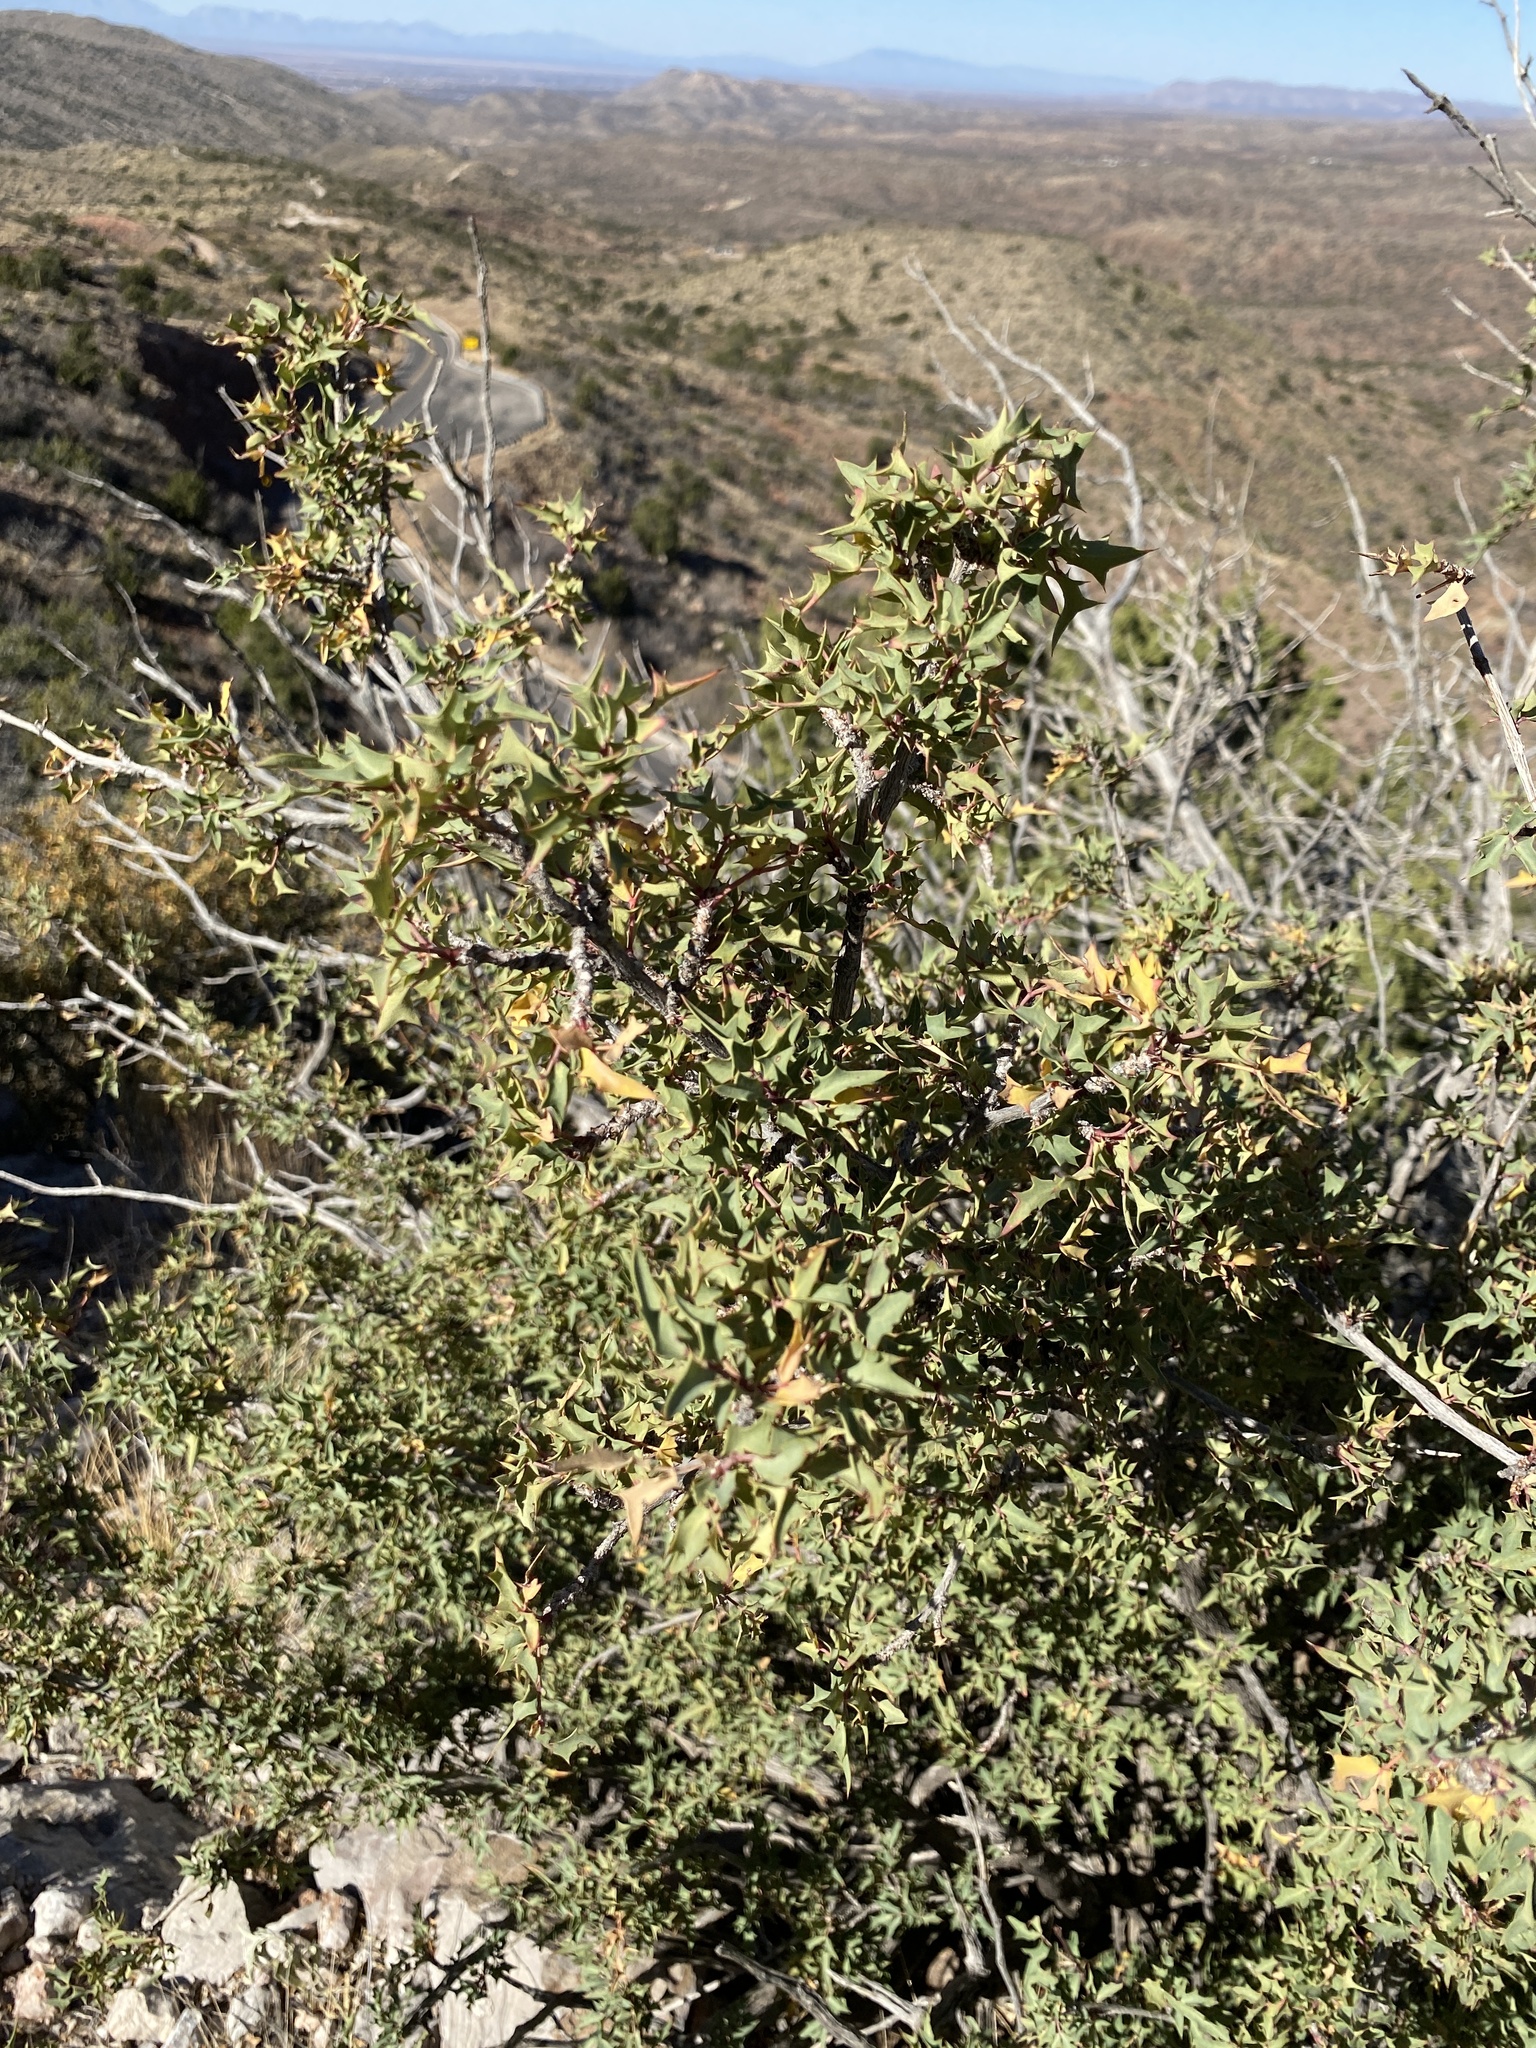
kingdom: Plantae
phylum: Tracheophyta
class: Magnoliopsida
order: Ranunculales
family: Berberidaceae
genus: Alloberberis
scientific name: Alloberberis haematocarpa
